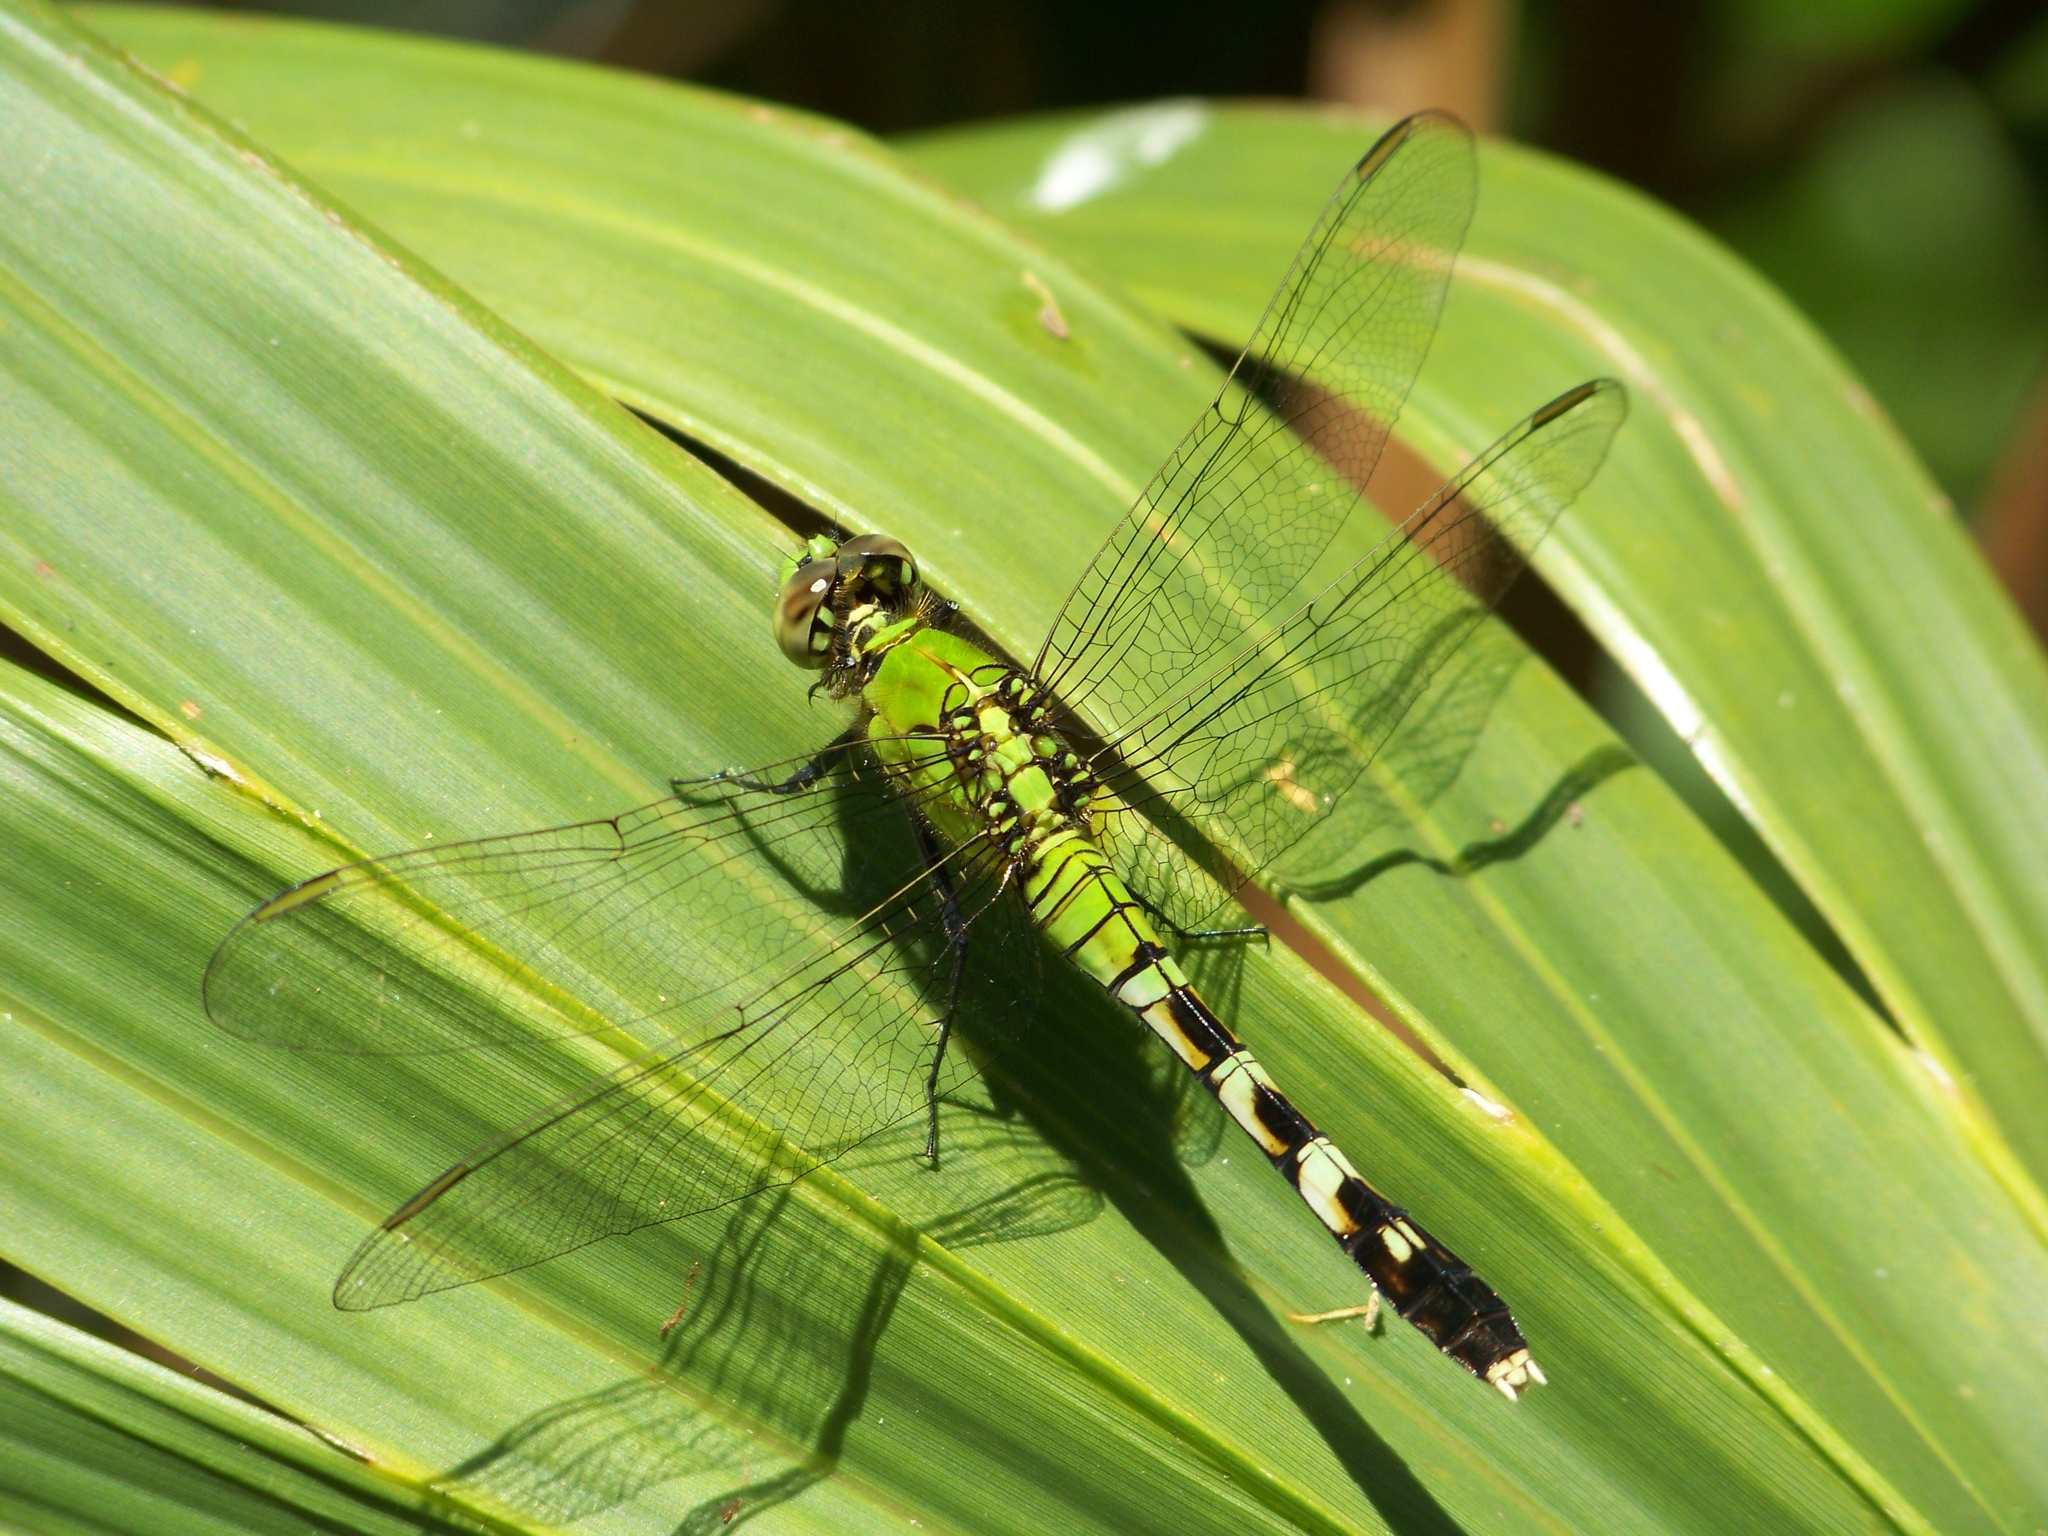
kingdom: Animalia
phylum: Arthropoda
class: Insecta
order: Odonata
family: Libellulidae
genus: Erythemis
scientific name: Erythemis simplicicollis
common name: Eastern pondhawk
